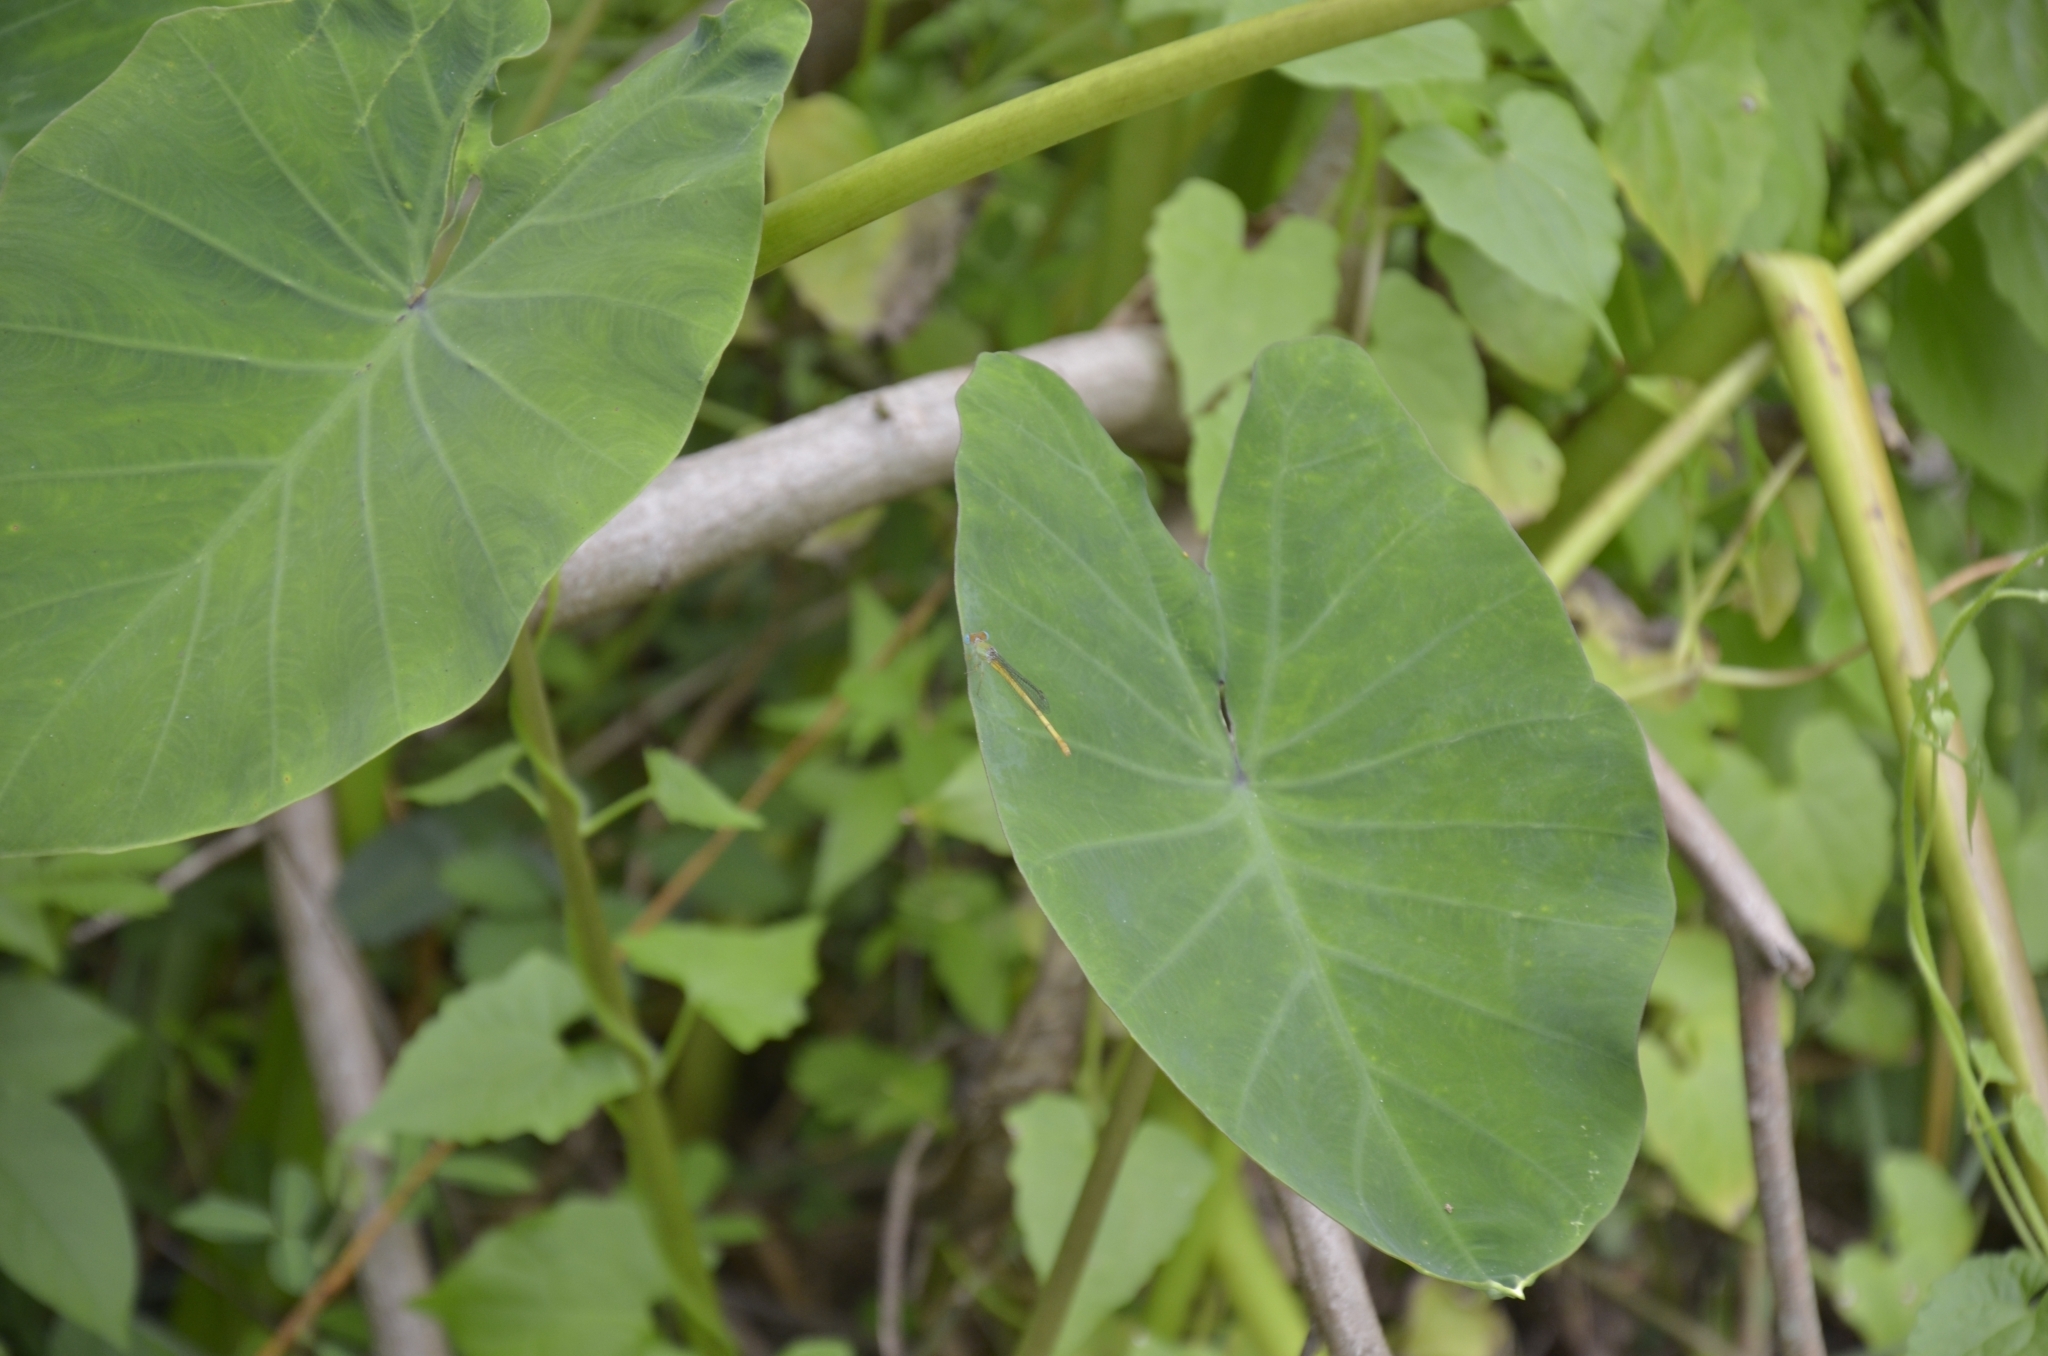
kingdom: Plantae
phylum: Tracheophyta
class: Liliopsida
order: Alismatales
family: Araceae
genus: Colocasia
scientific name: Colocasia esculenta
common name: Taro
